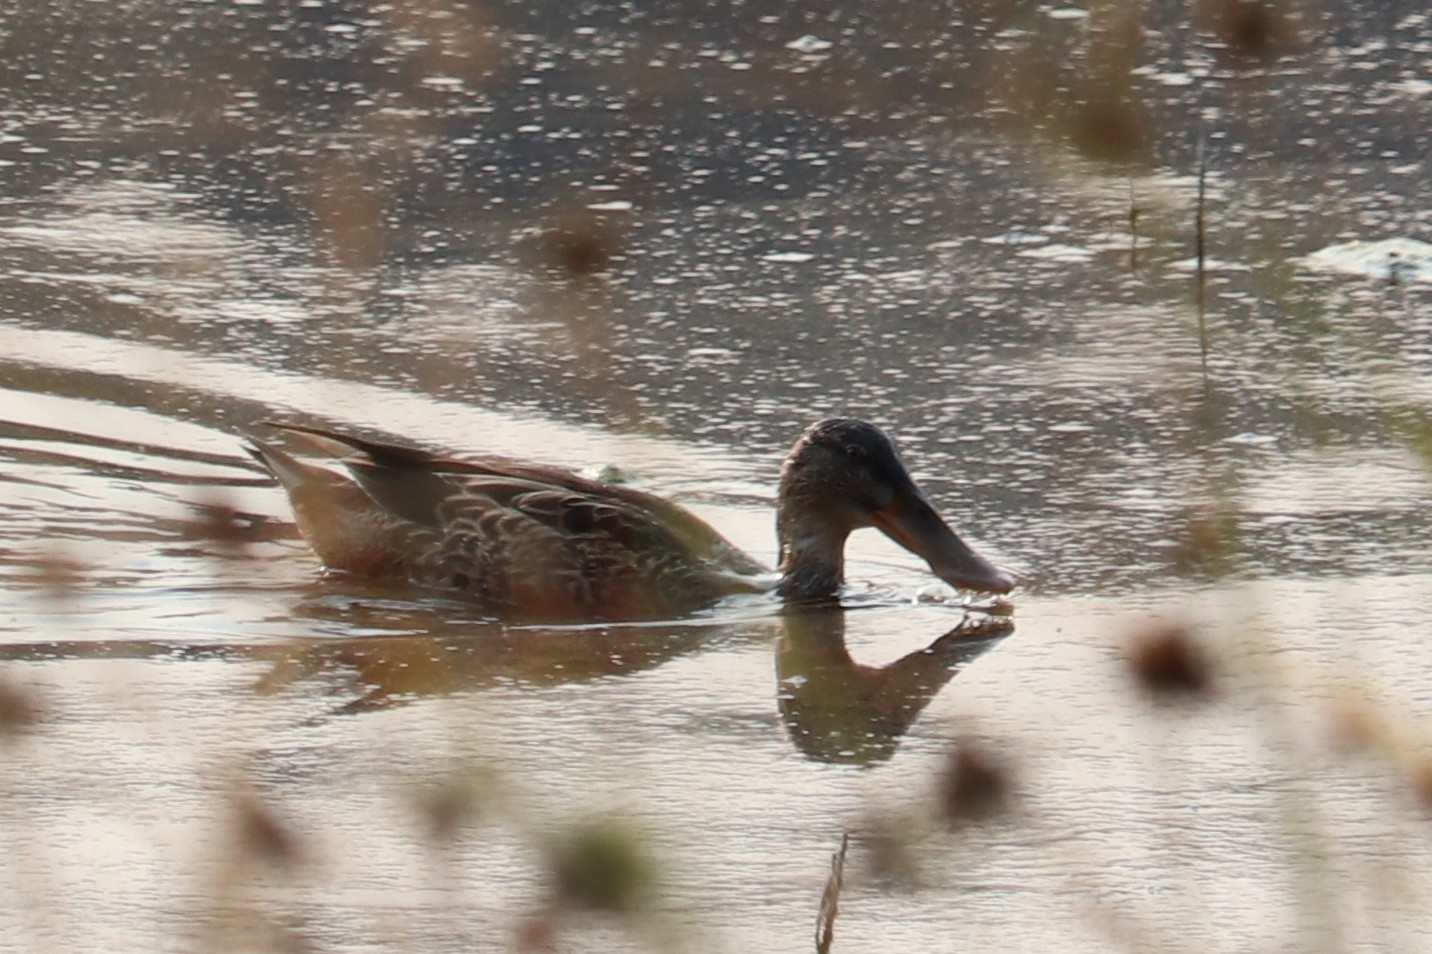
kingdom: Animalia
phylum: Chordata
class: Aves
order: Anseriformes
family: Anatidae
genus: Spatula
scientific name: Spatula clypeata
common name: Northern shoveler
